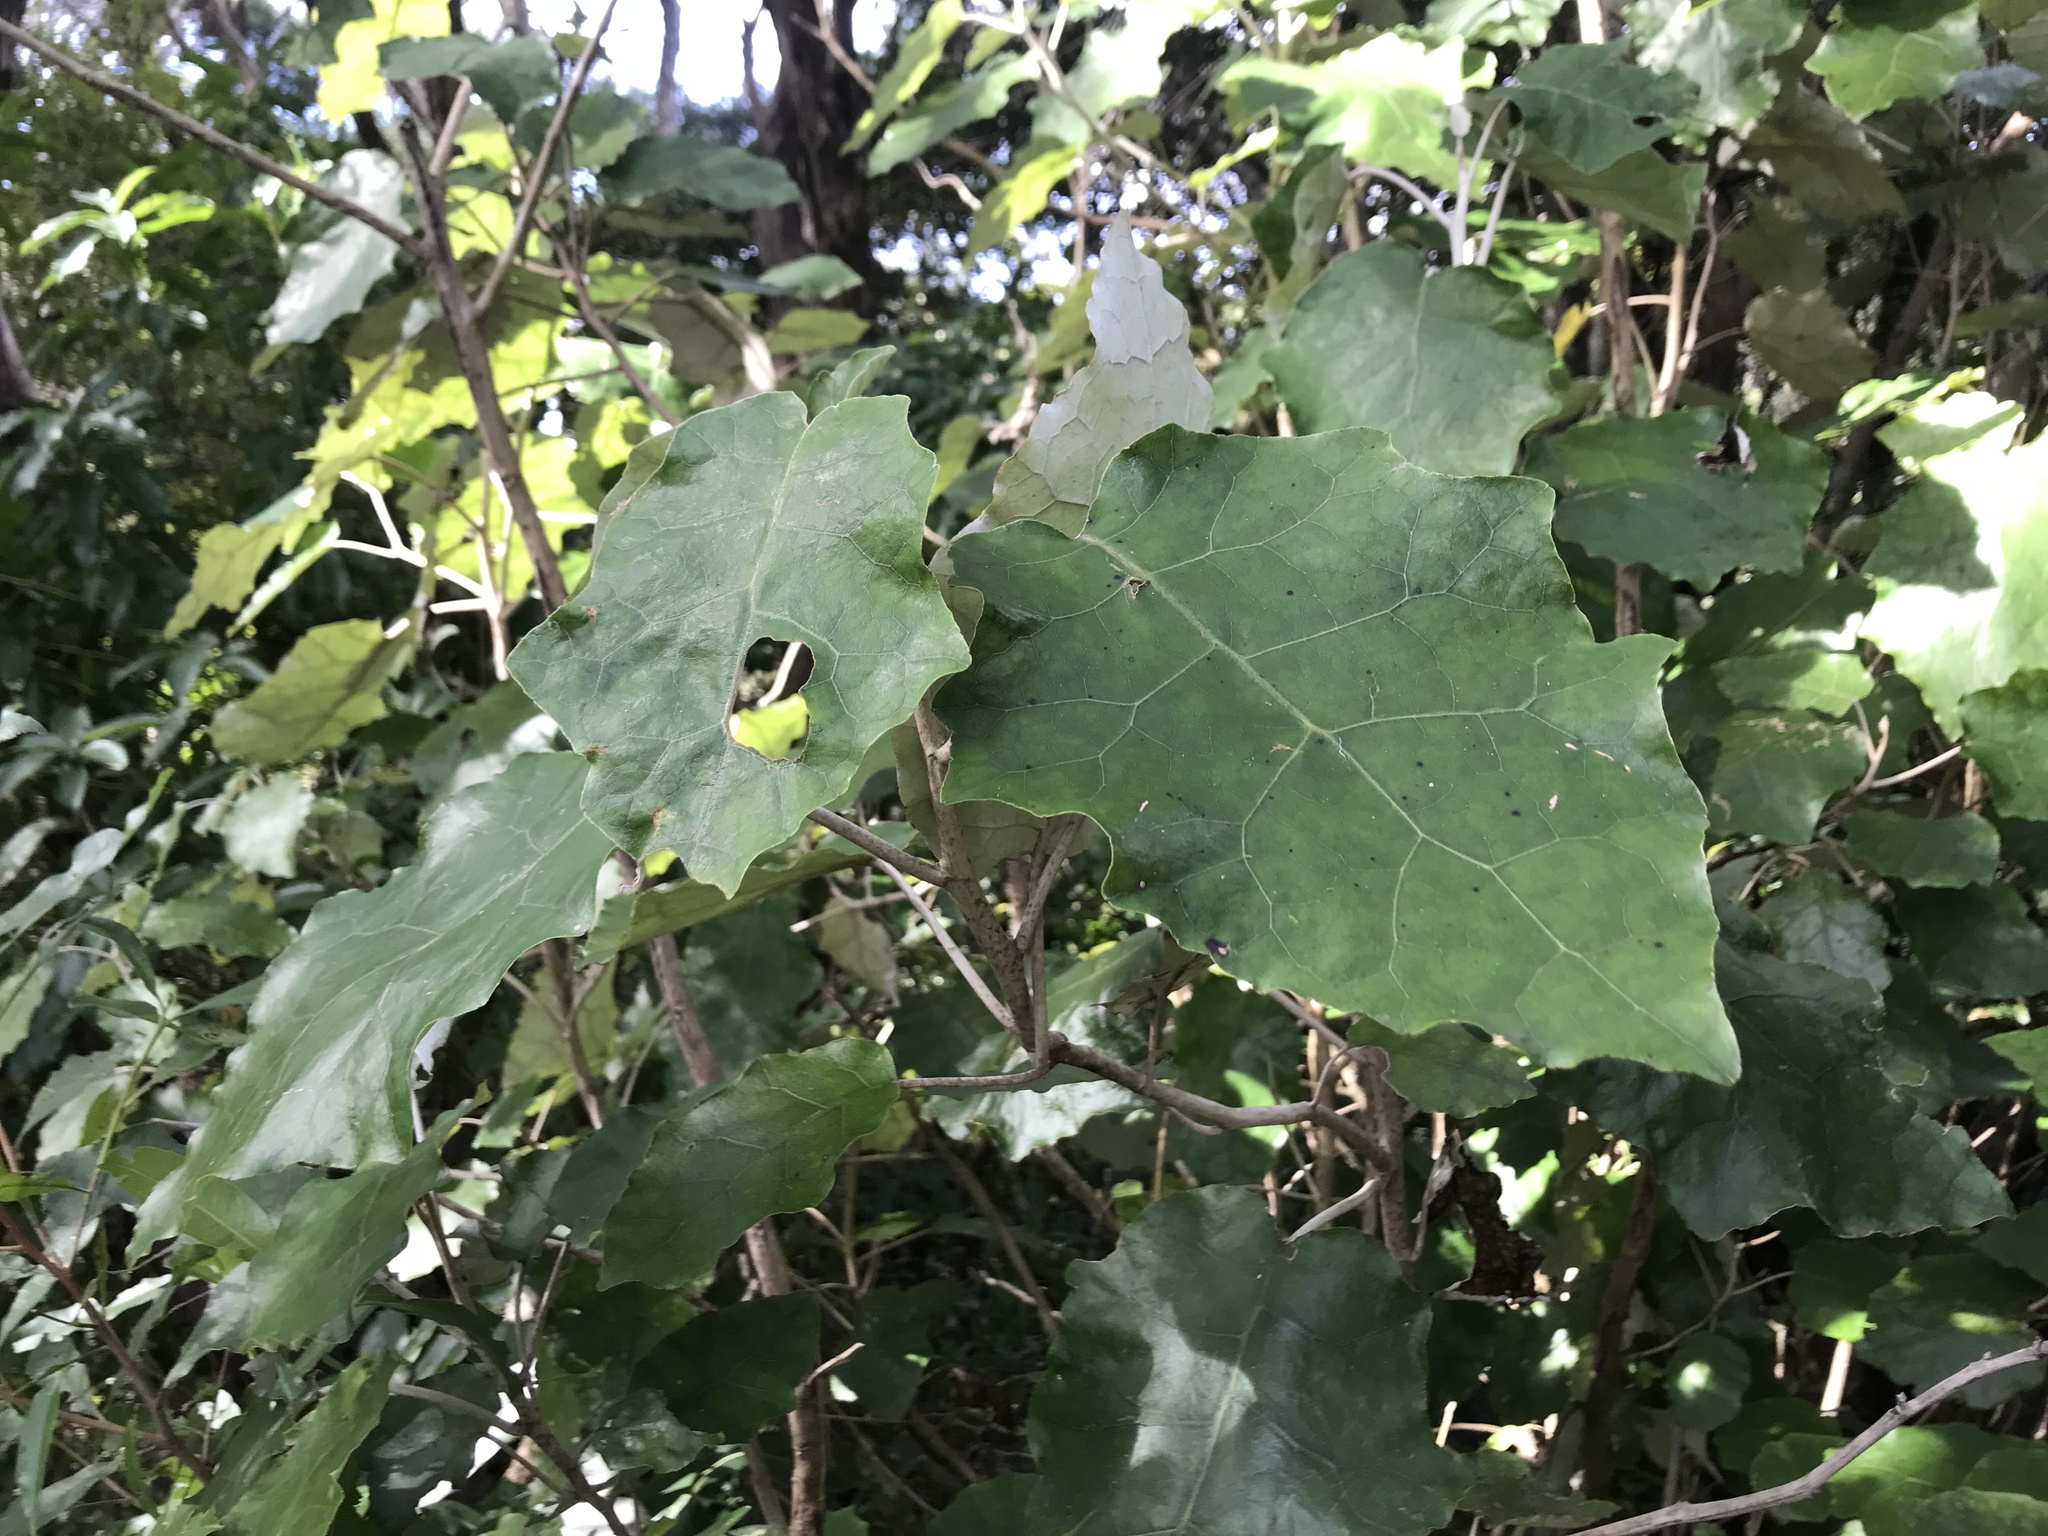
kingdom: Plantae
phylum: Tracheophyta
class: Magnoliopsida
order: Asterales
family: Asteraceae
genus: Brachyglottis
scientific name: Brachyglottis repanda
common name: Hedge ragwort
